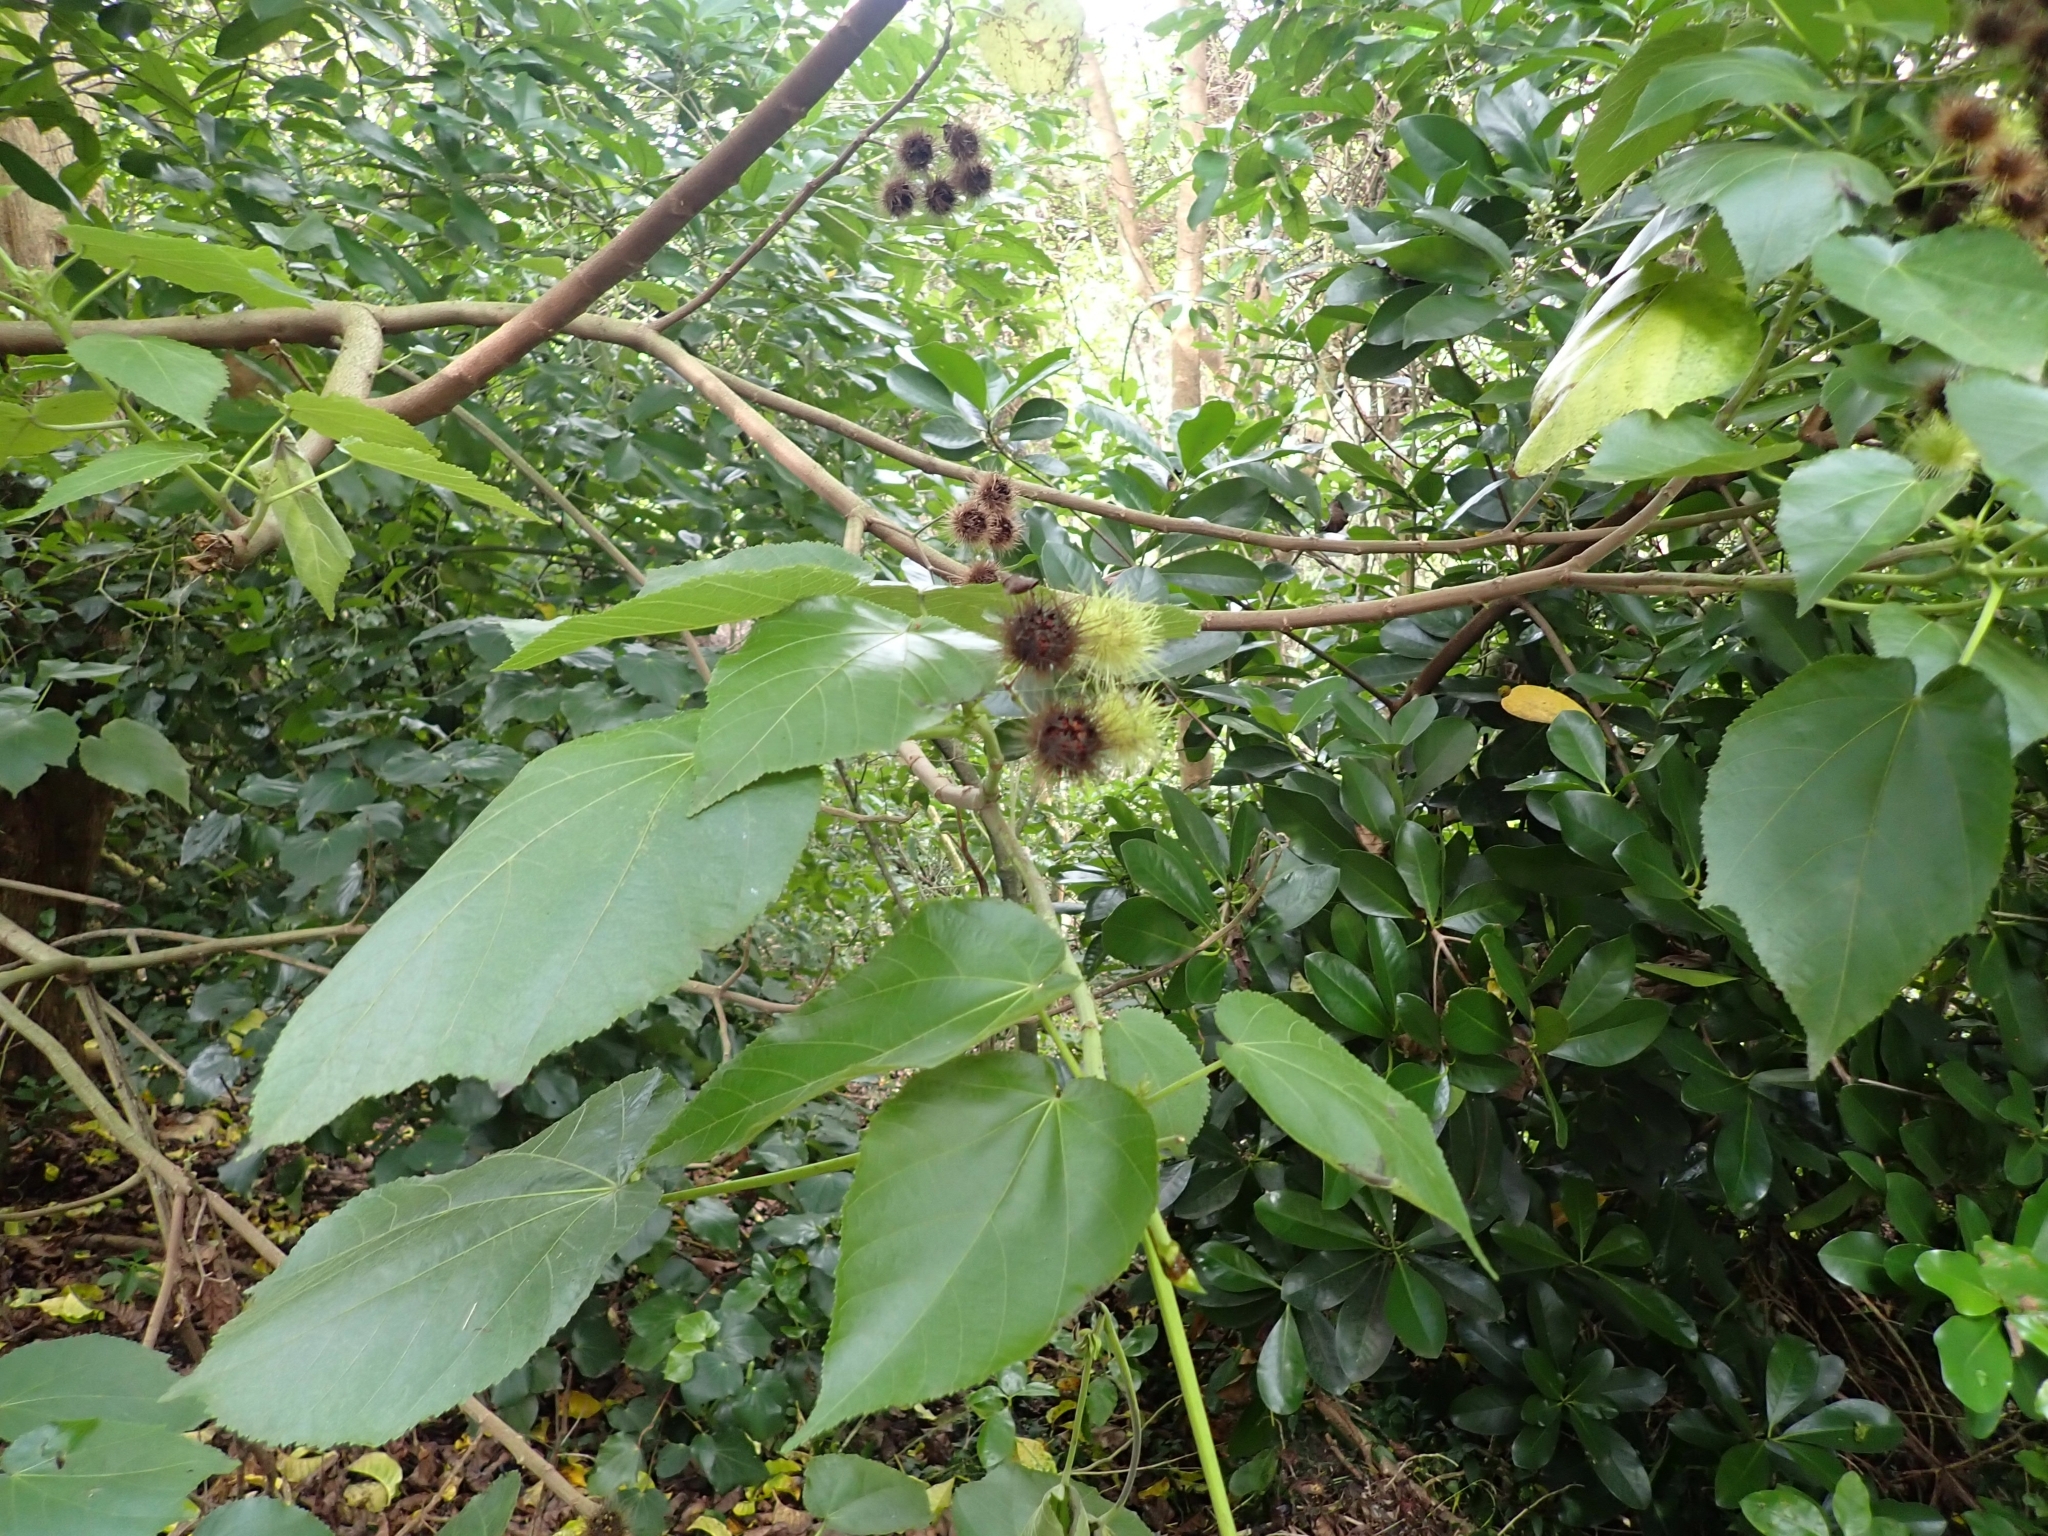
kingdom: Plantae
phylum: Tracheophyta
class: Magnoliopsida
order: Malvales
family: Malvaceae
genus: Entelea
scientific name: Entelea arborescens
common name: New zealand-mulberry
